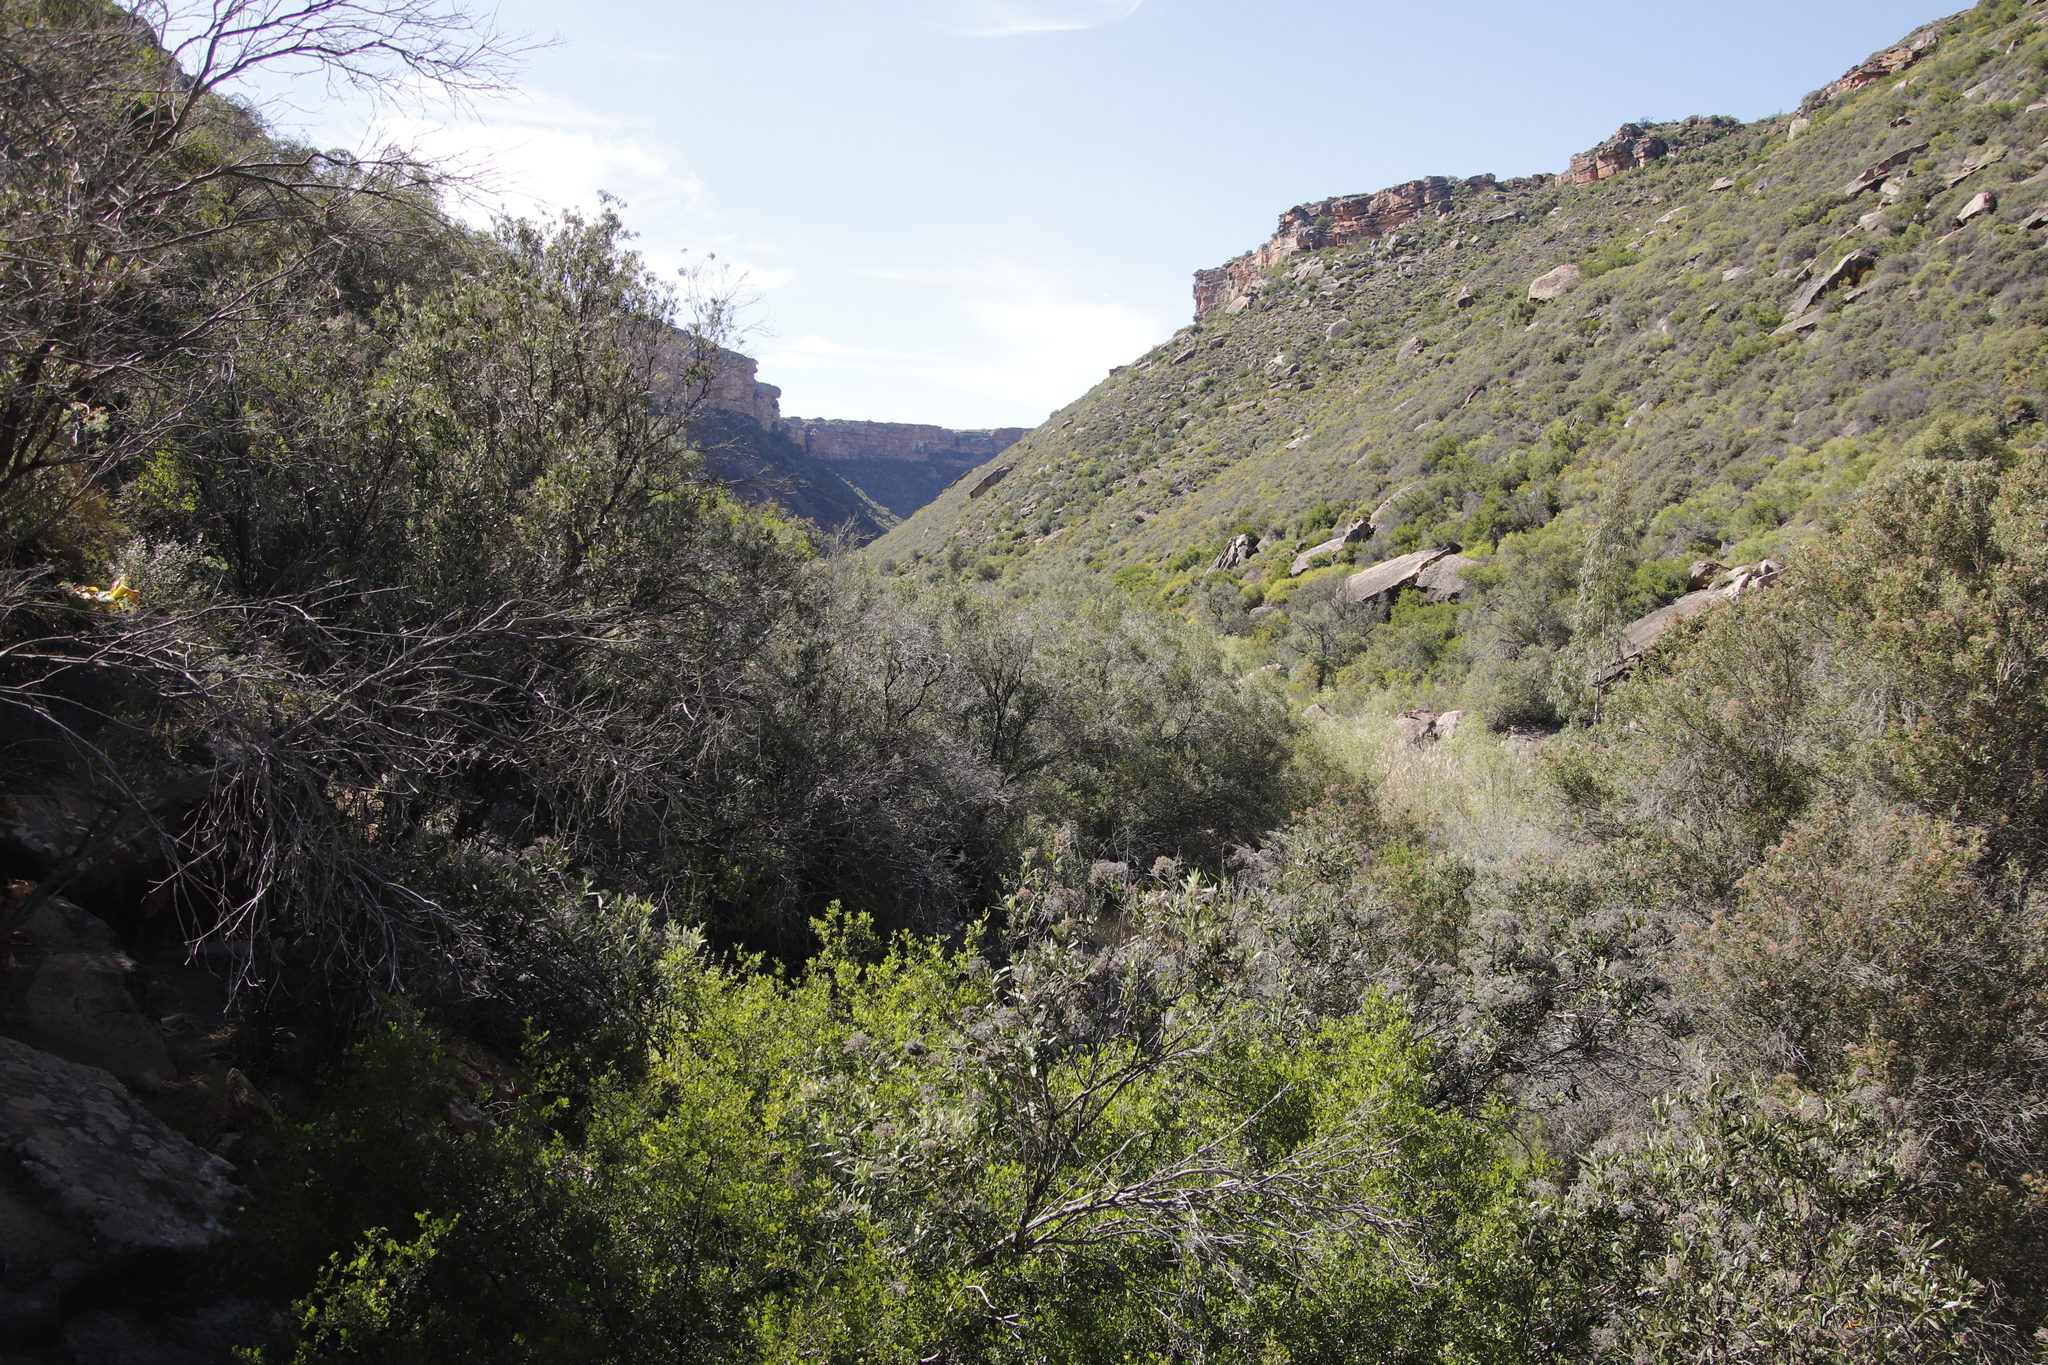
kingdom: Plantae
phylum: Tracheophyta
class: Magnoliopsida
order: Lamiales
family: Scrophulariaceae
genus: Buddleja
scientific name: Buddleja saligna
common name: False olive
